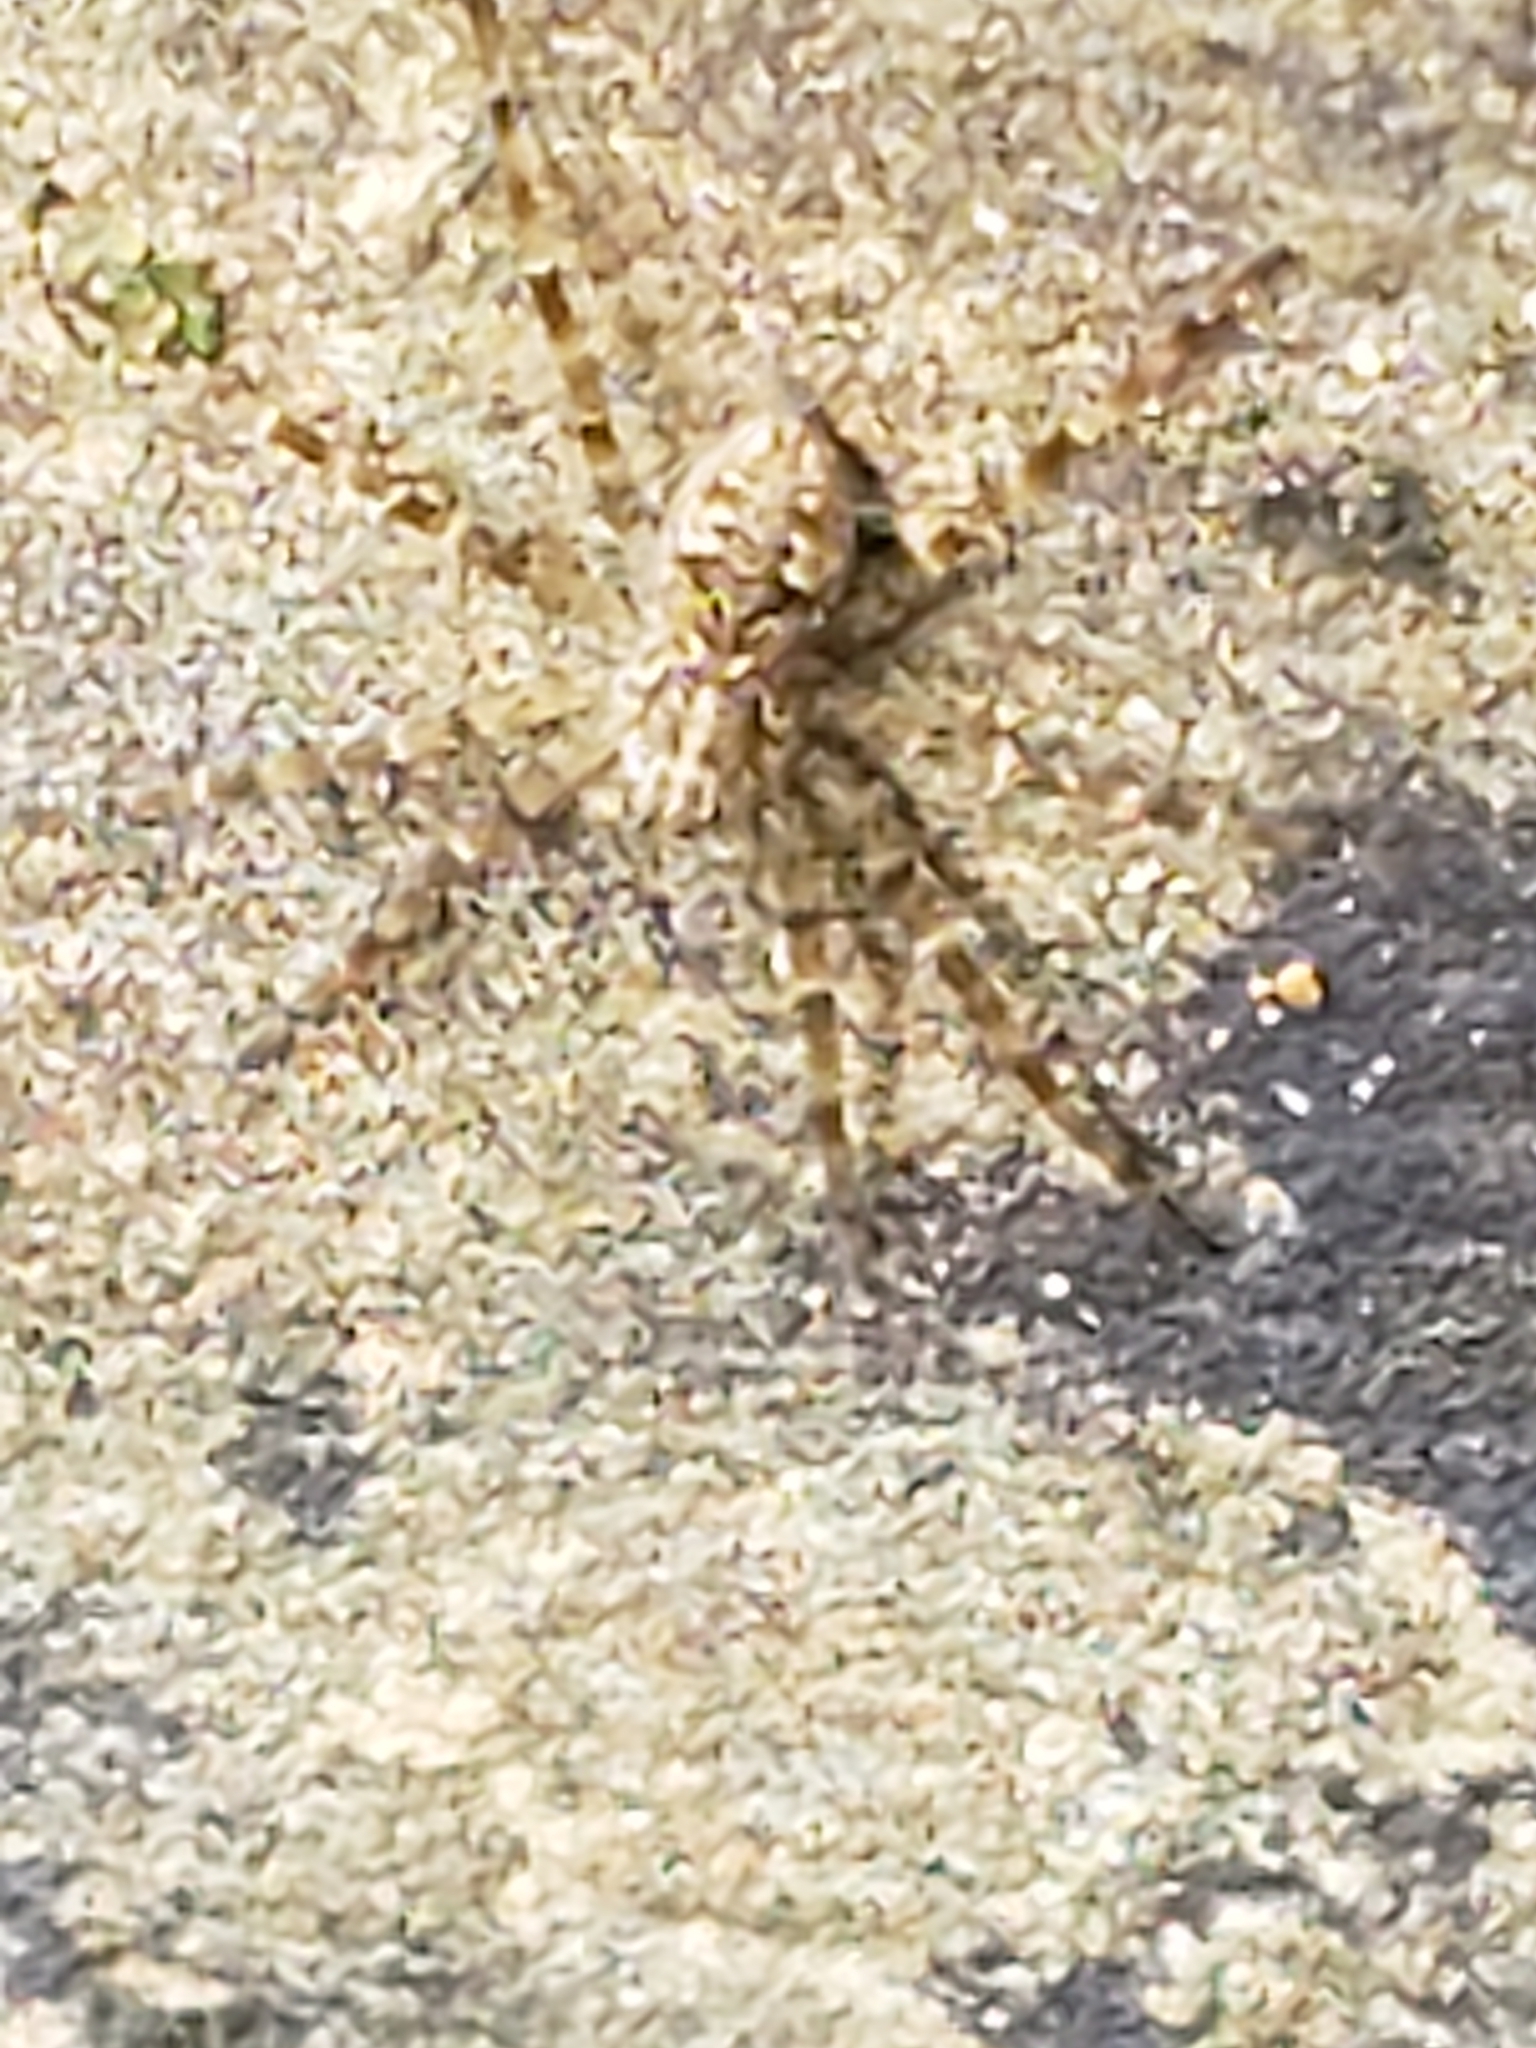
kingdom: Animalia
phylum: Arthropoda
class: Arachnida
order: Araneae
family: Pisauridae
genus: Dolomedes
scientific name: Dolomedes tenebrosus
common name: Dark fishing spider
